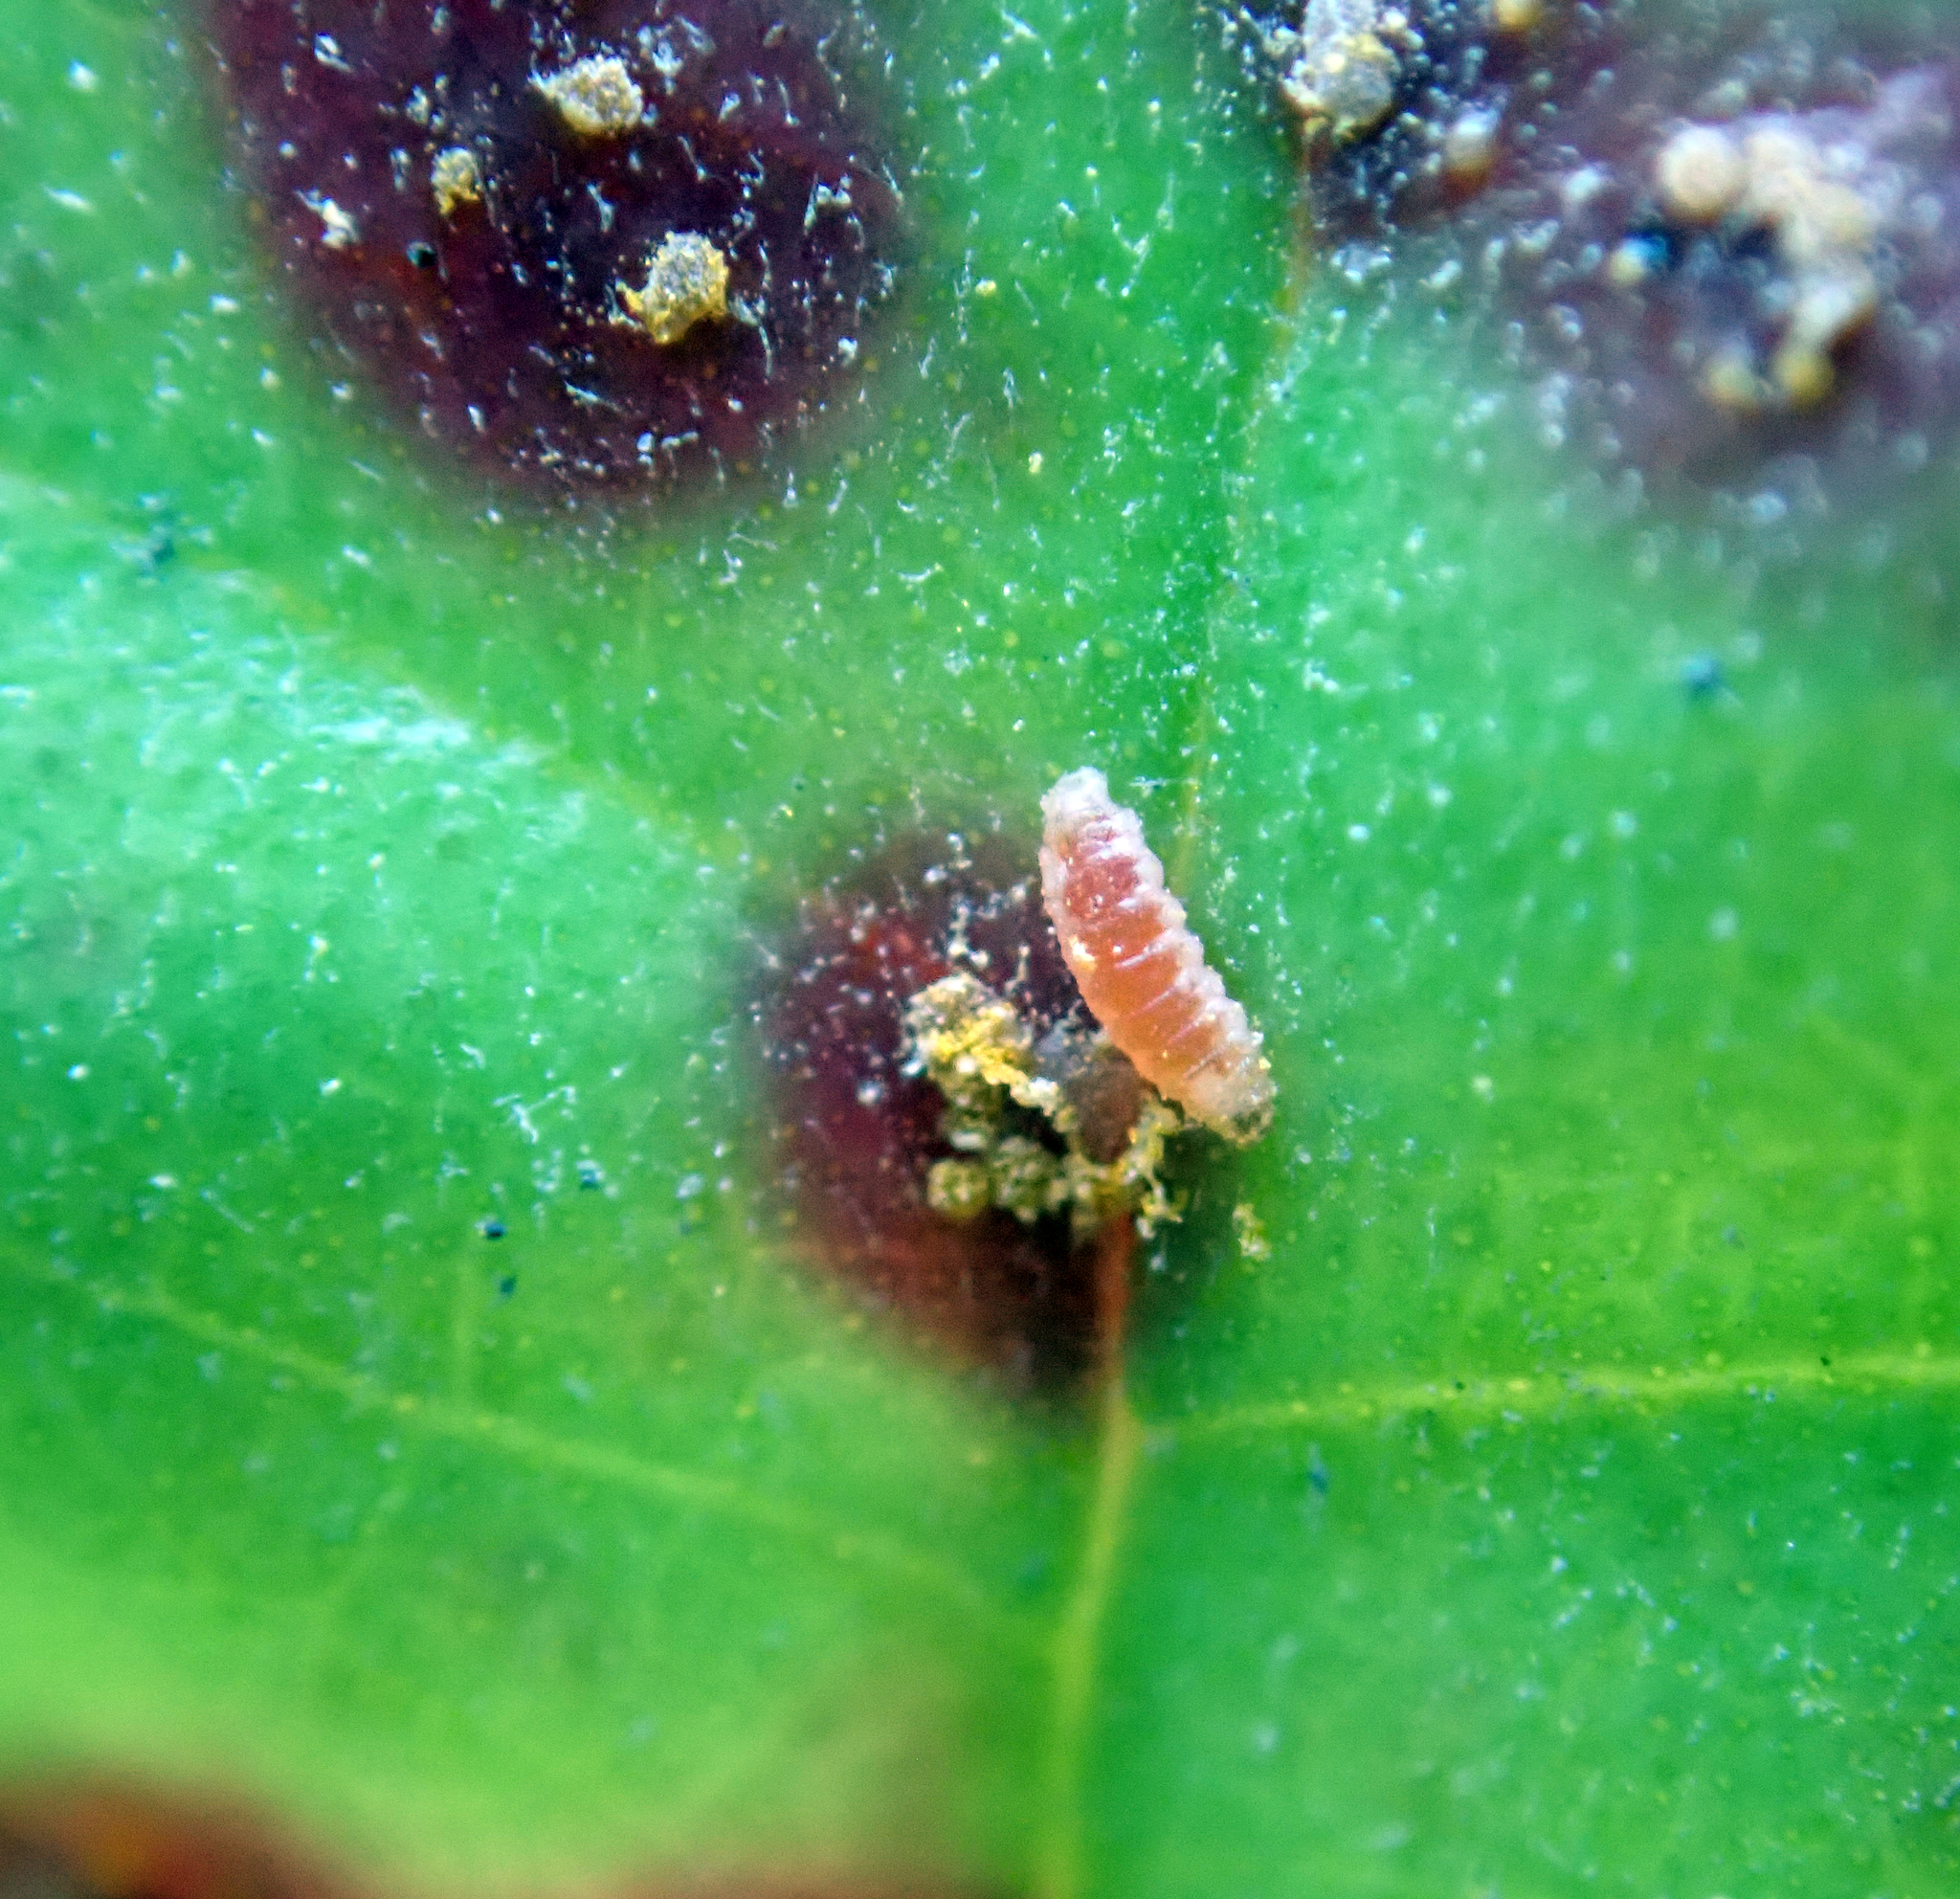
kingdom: Animalia
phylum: Arthropoda
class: Insecta
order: Diptera
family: Cecidomyiidae
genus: Mycodiplosis
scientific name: Mycodiplosis constricta
